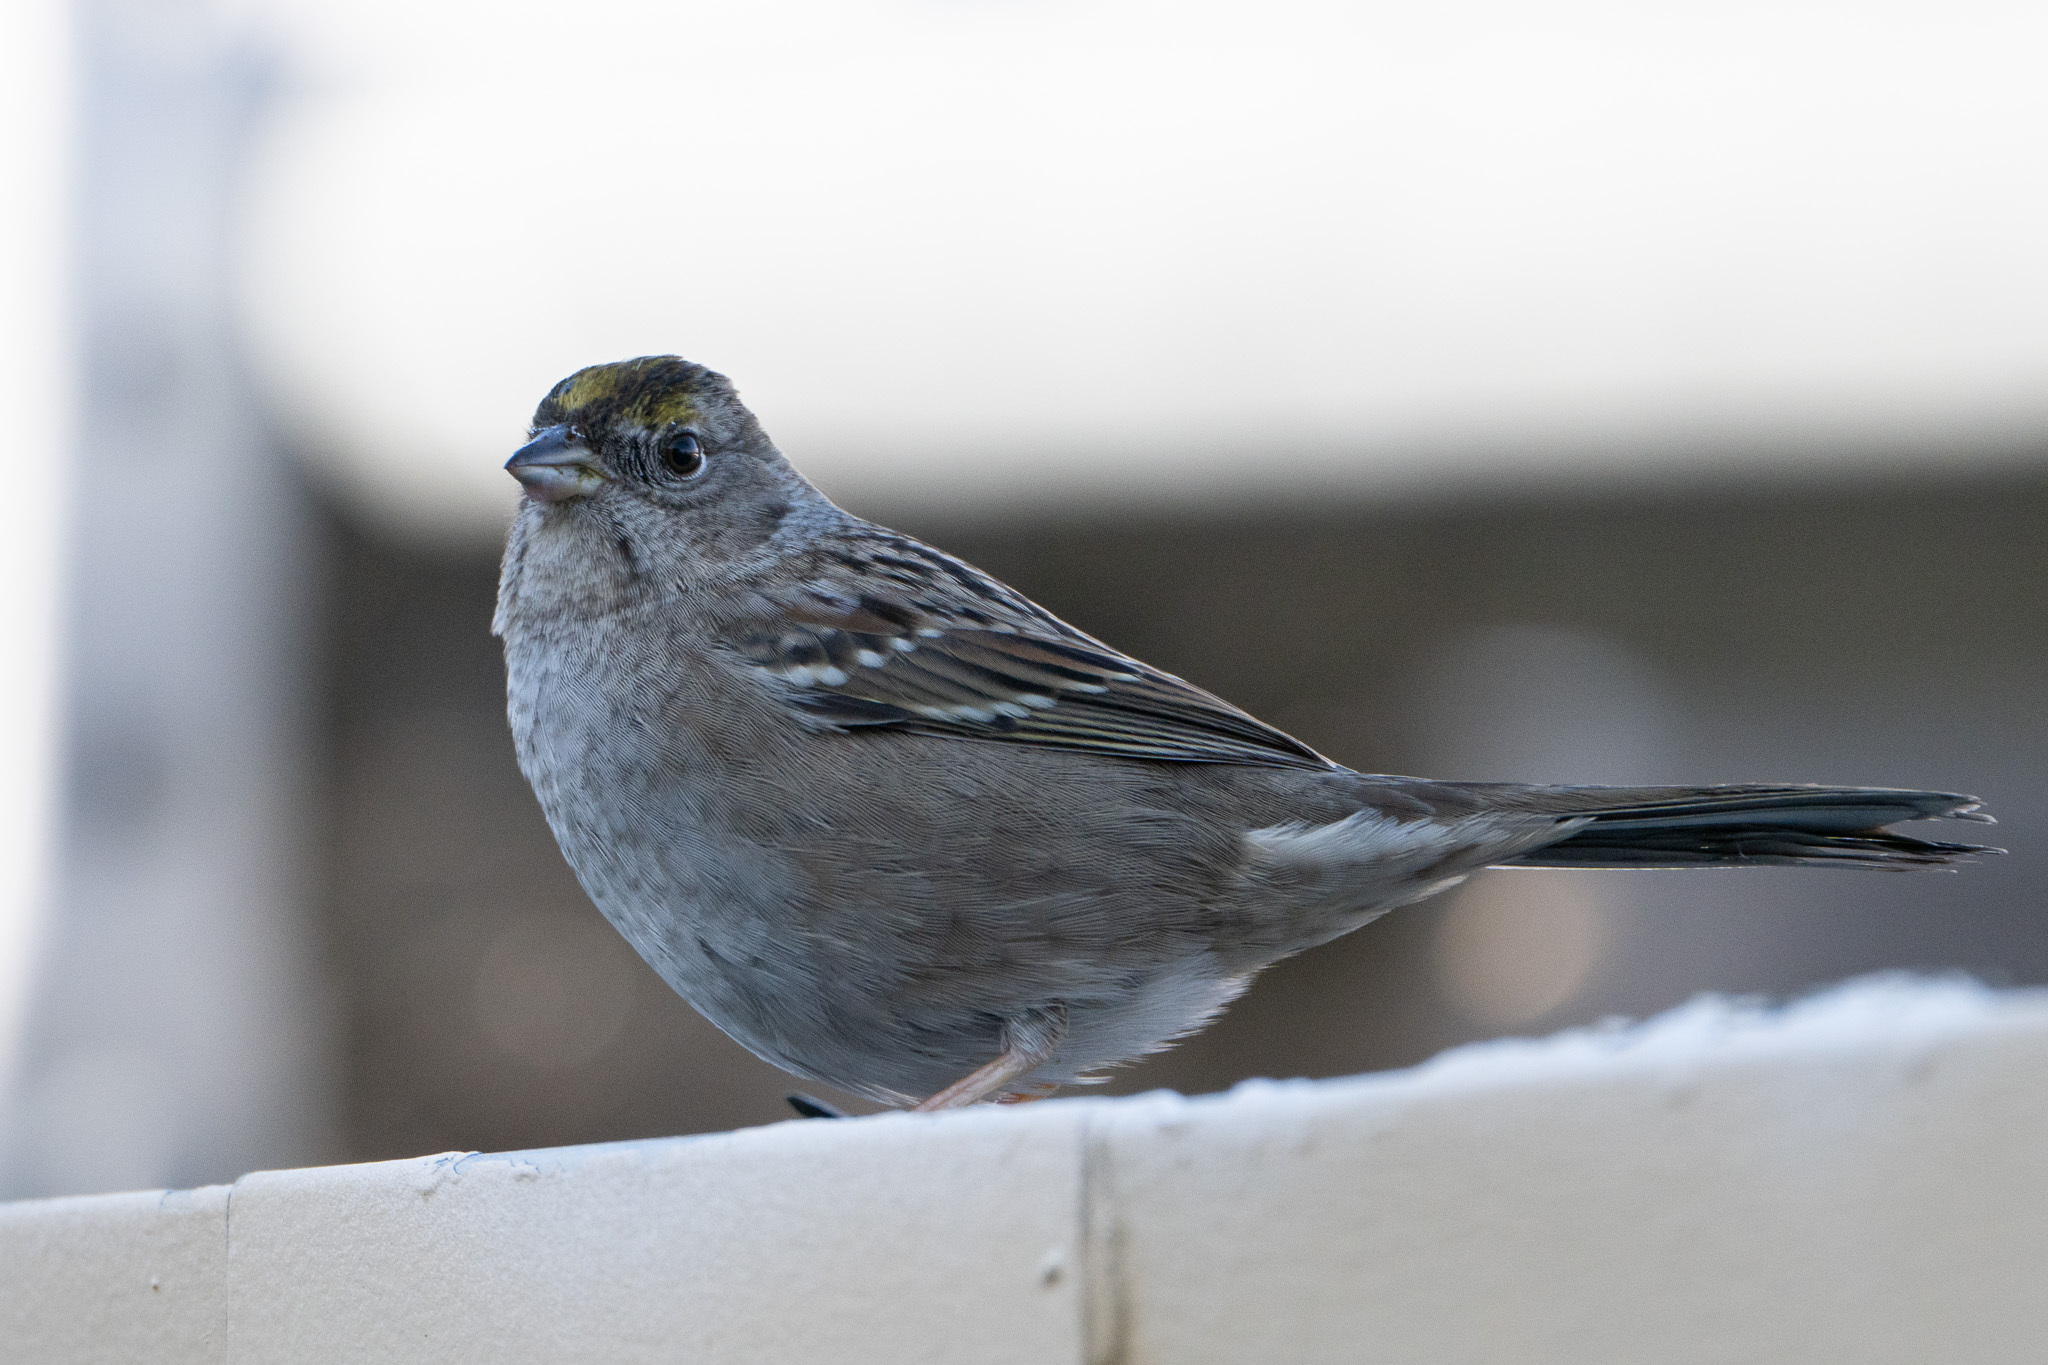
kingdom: Animalia
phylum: Chordata
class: Aves
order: Passeriformes
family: Passerellidae
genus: Zonotrichia
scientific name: Zonotrichia atricapilla
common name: Golden-crowned sparrow
